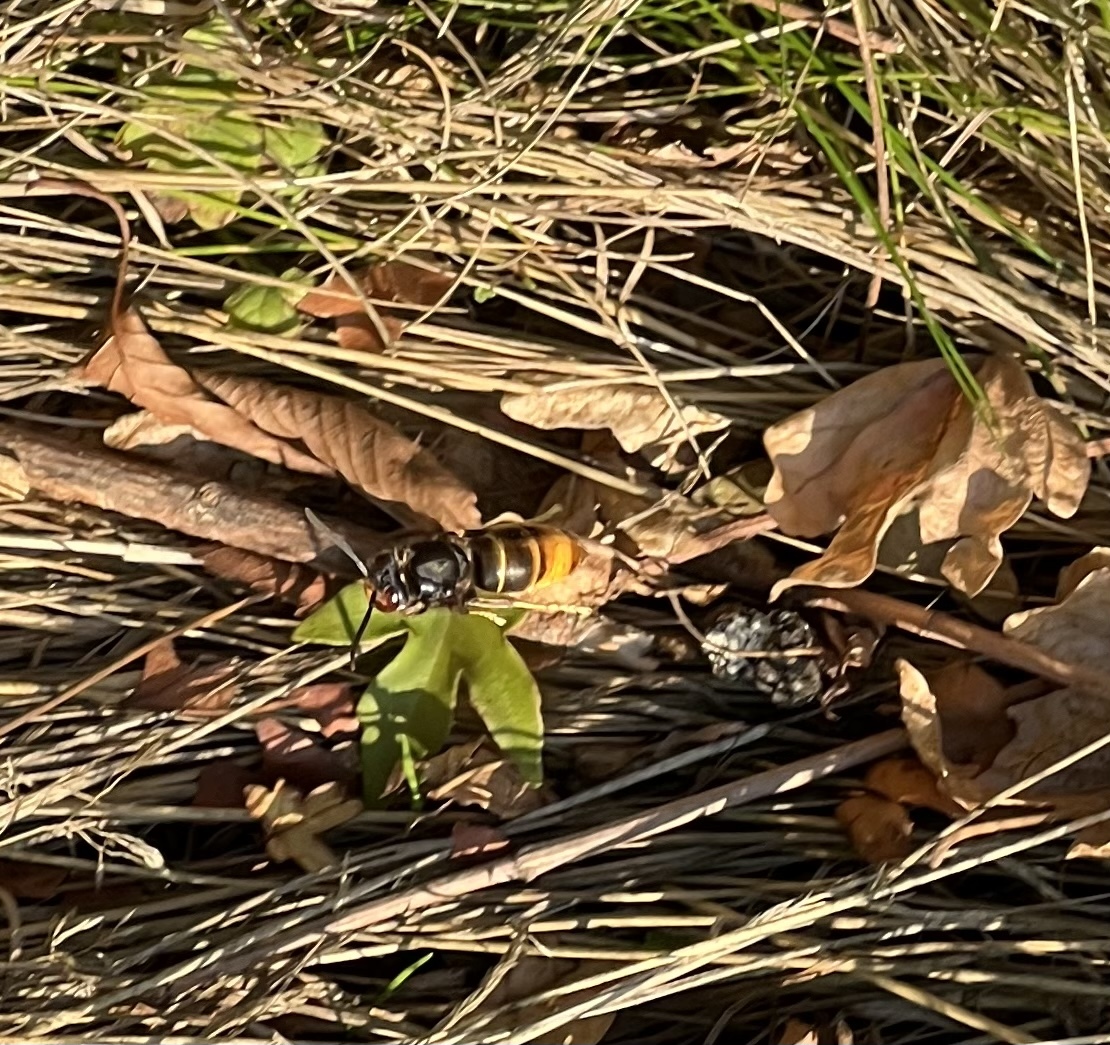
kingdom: Animalia
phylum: Arthropoda
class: Insecta
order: Hymenoptera
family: Vespidae
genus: Vespa
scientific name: Vespa velutina
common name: Asian hornet
